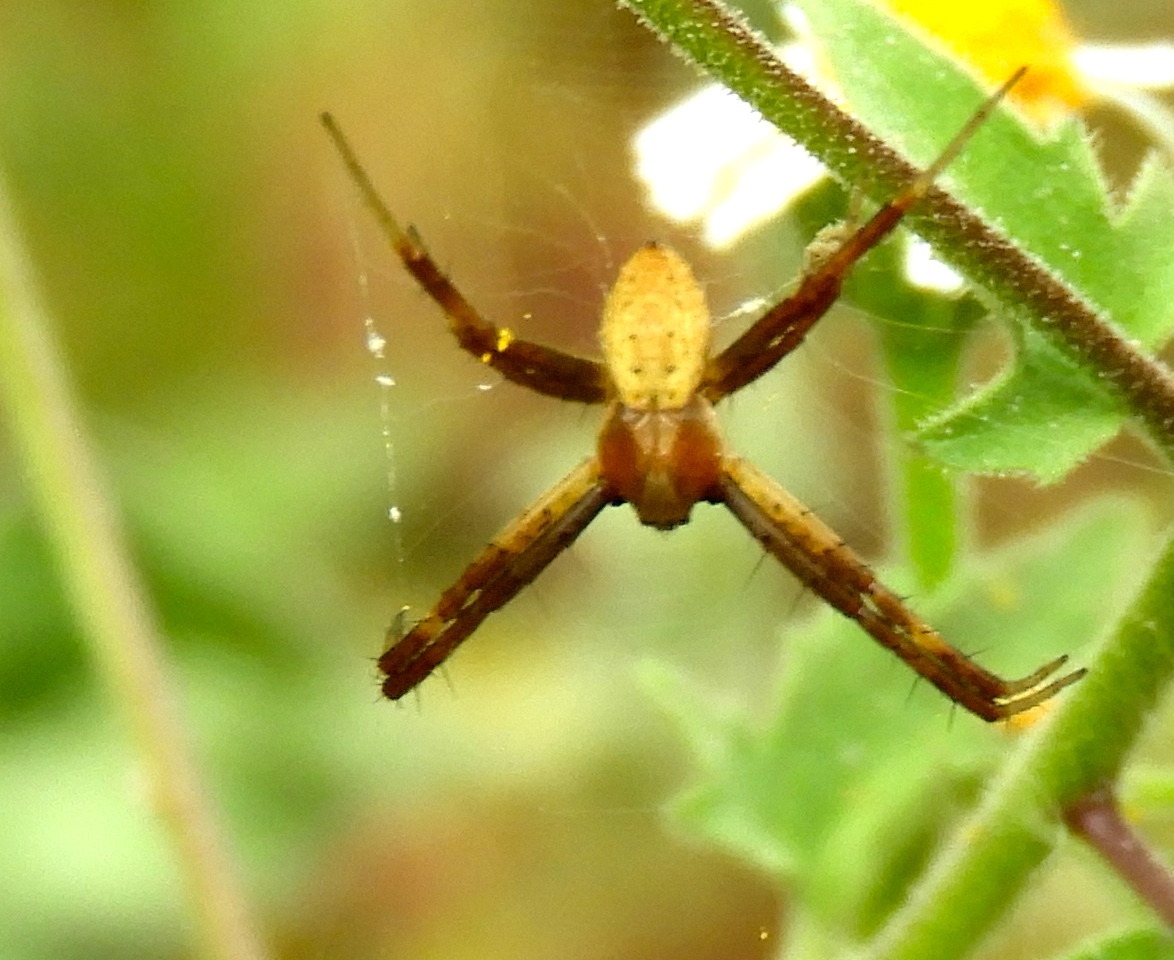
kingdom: Animalia
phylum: Arthropoda
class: Arachnida
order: Araneae
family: Araneidae
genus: Argiope
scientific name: Argiope
